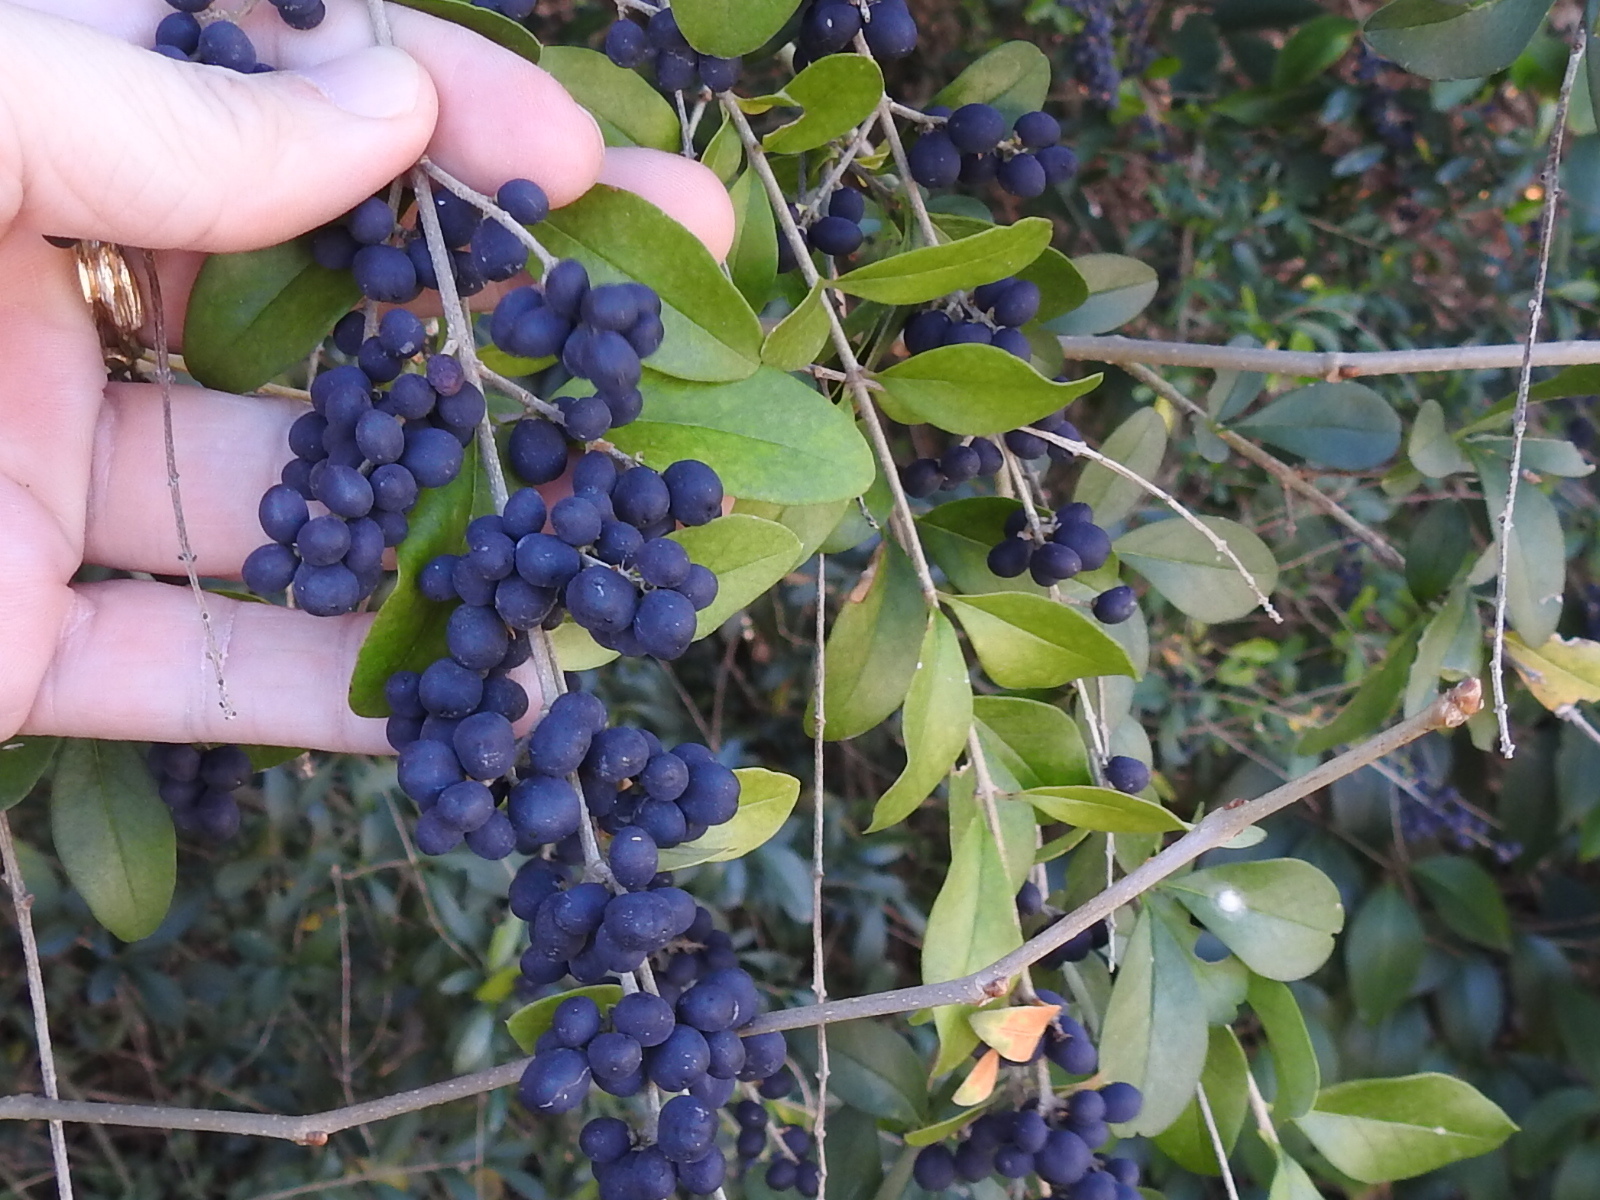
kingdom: Plantae
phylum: Tracheophyta
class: Magnoliopsida
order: Lamiales
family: Oleaceae
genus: Ligustrum
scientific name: Ligustrum quihoui
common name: Waxyleaf privet
